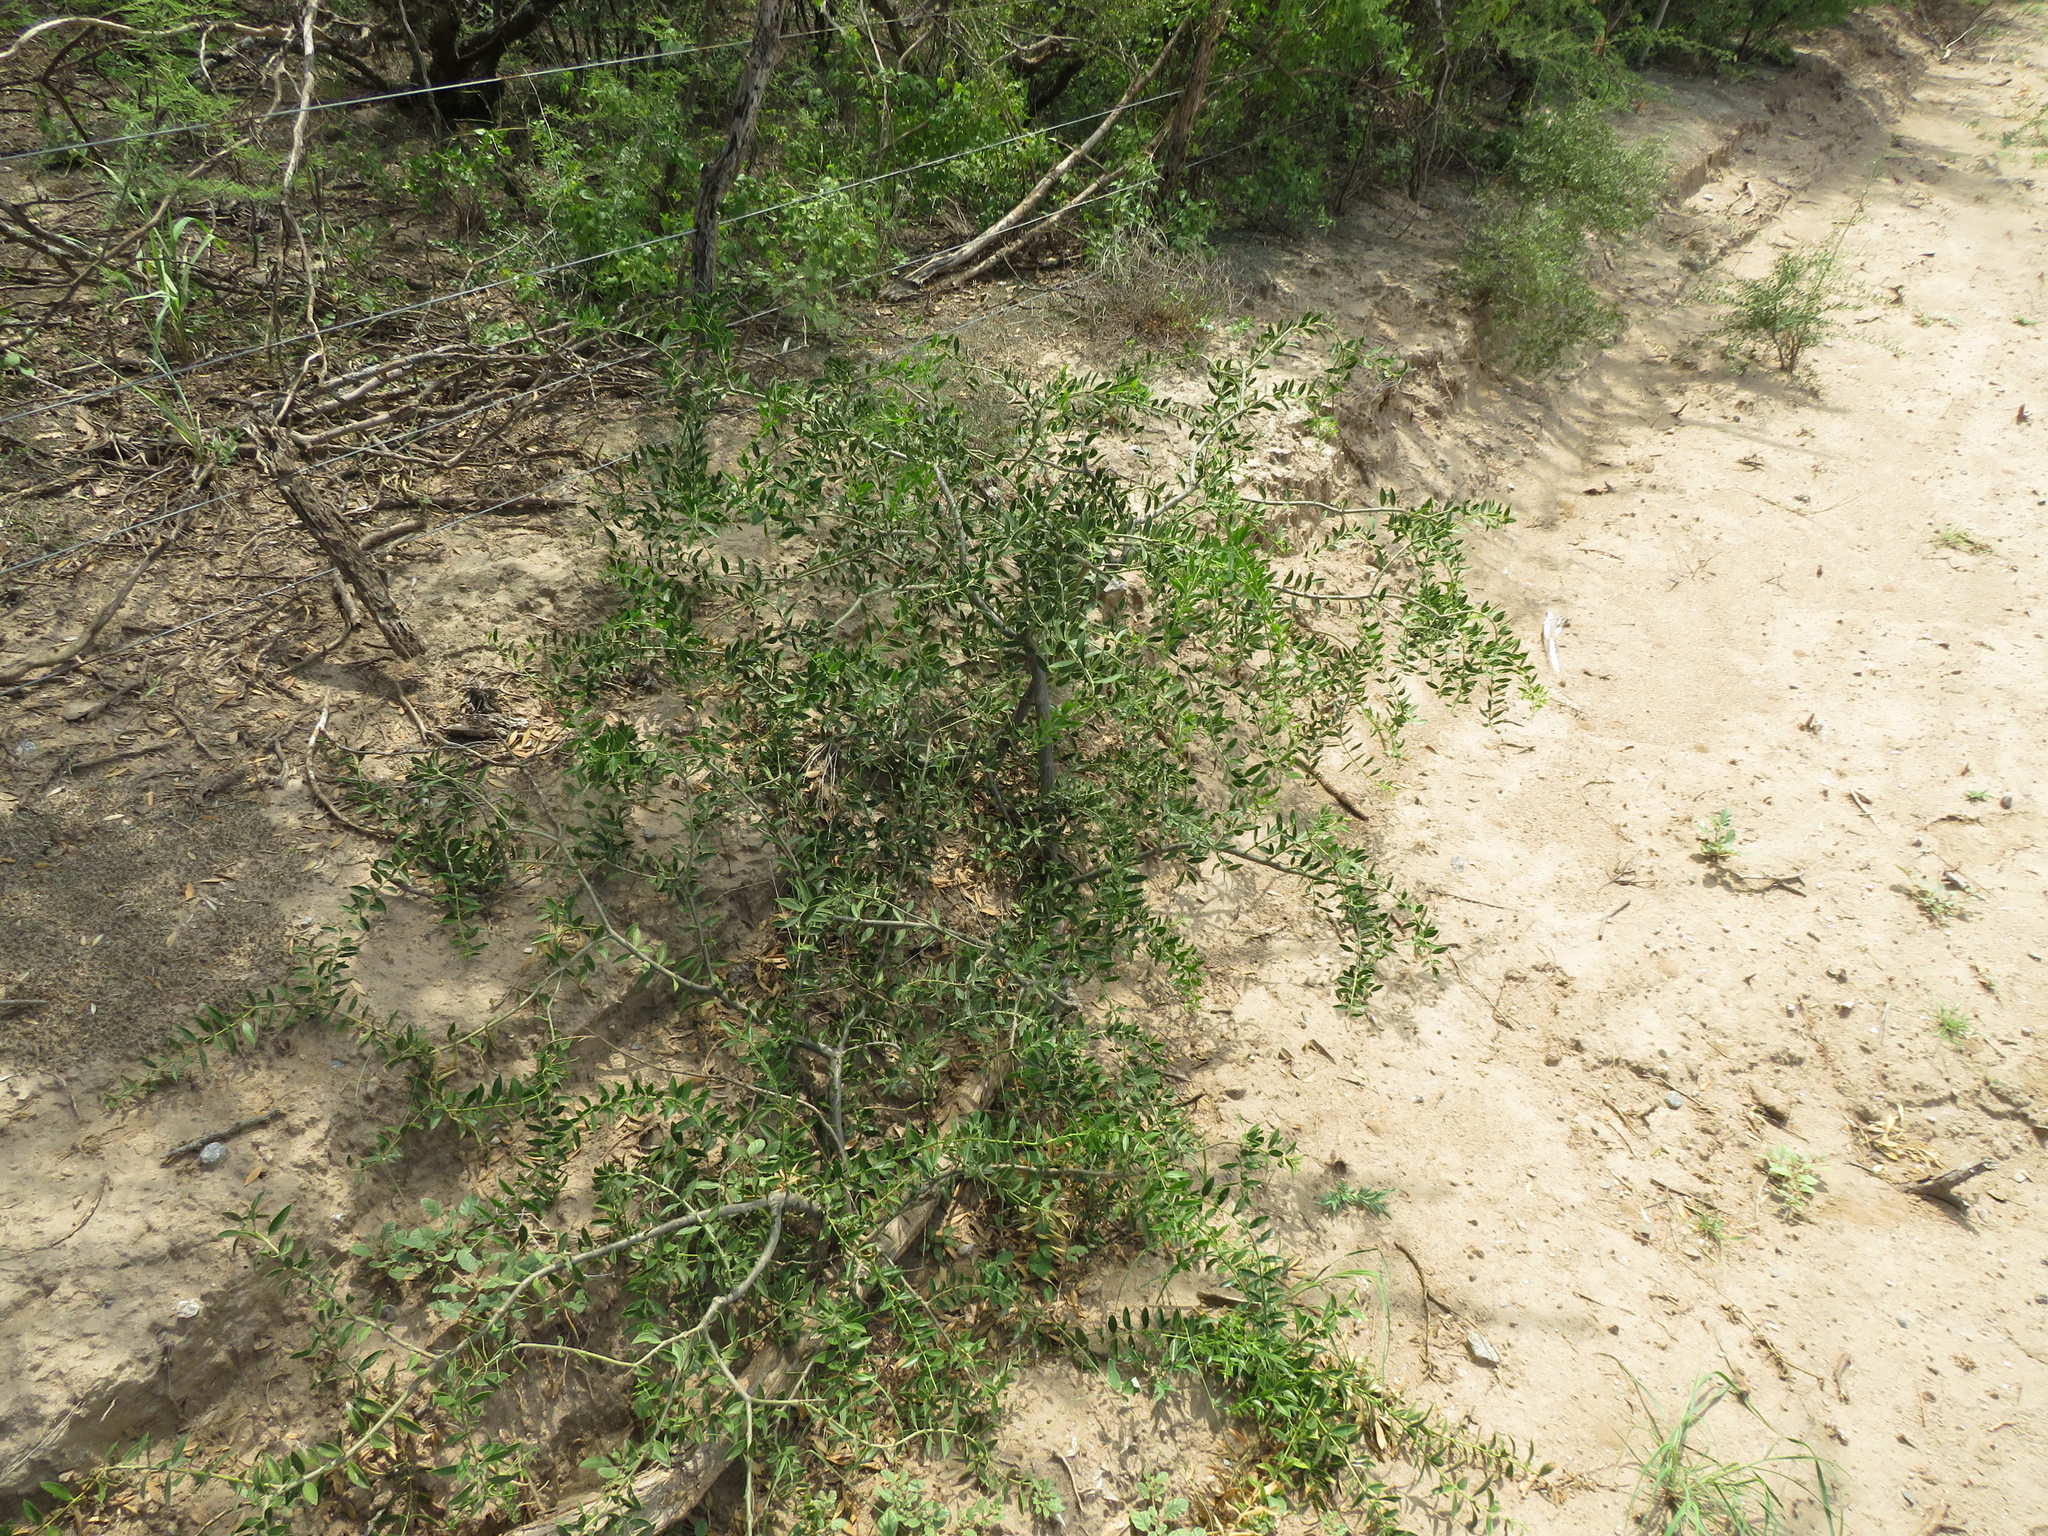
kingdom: Plantae
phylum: Tracheophyta
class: Magnoliopsida
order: Gentianales
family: Apocynaceae
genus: Aspidosperma
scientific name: Aspidosperma quebracho-blanco
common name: White quebracho
